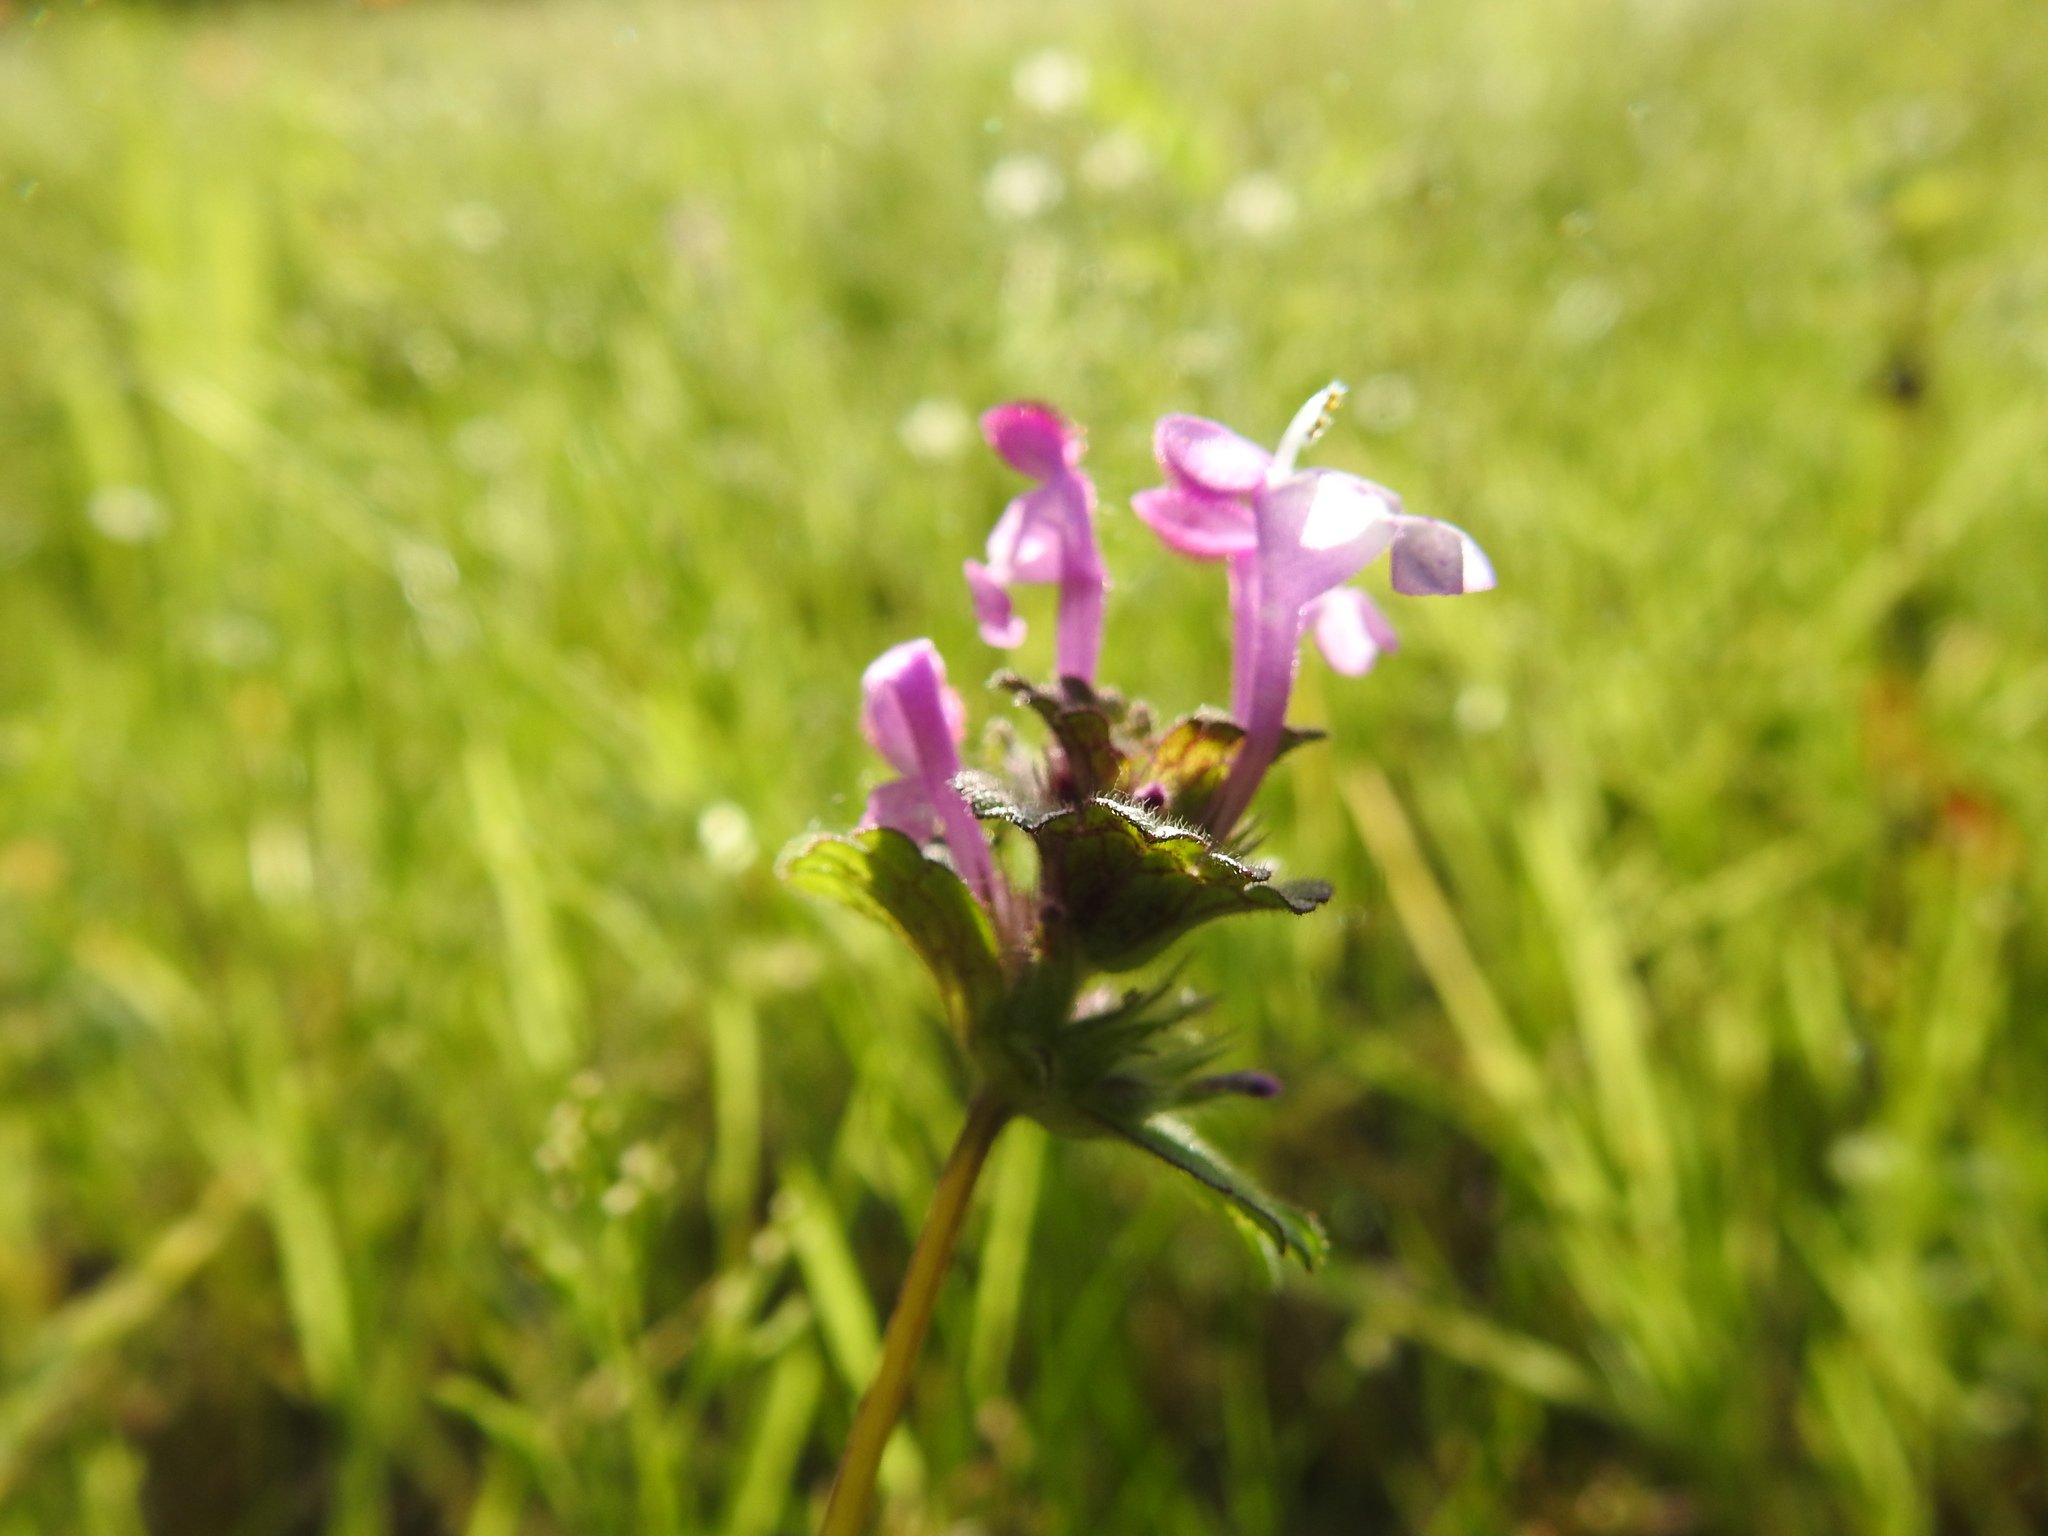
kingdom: Plantae
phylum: Tracheophyta
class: Magnoliopsida
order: Lamiales
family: Lamiaceae
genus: Lamium
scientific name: Lamium amplexicaule
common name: Henbit dead-nettle
